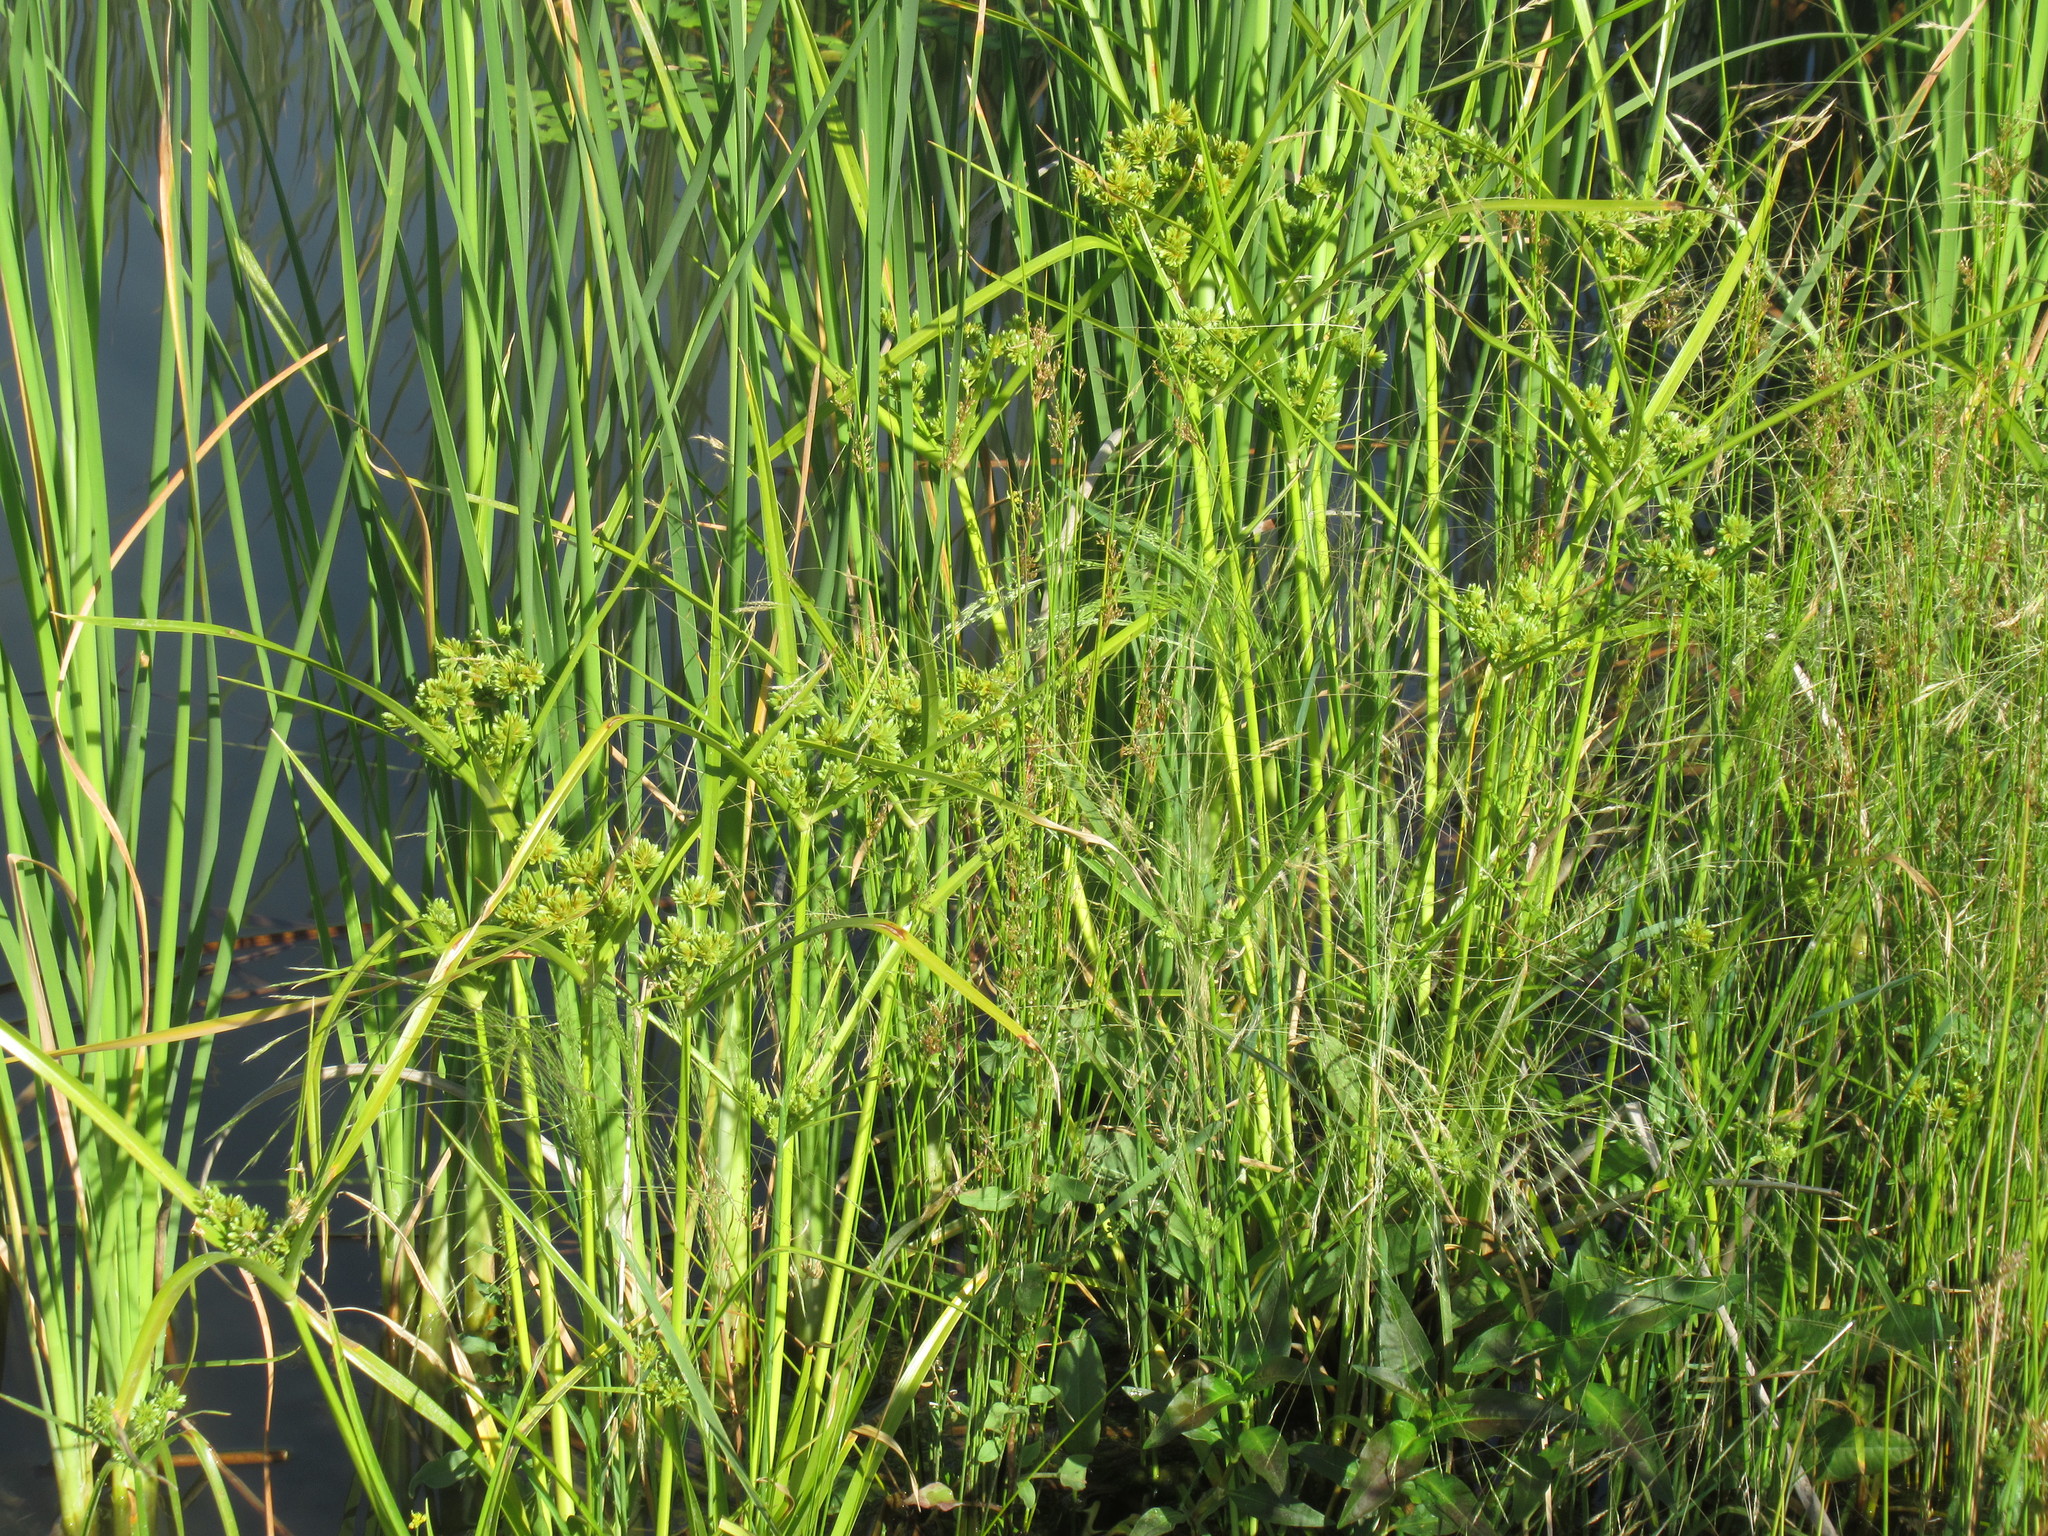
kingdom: Plantae
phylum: Tracheophyta
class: Liliopsida
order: Poales
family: Cyperaceae
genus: Cyperus
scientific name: Cyperus eragrostis
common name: Tall flatsedge
